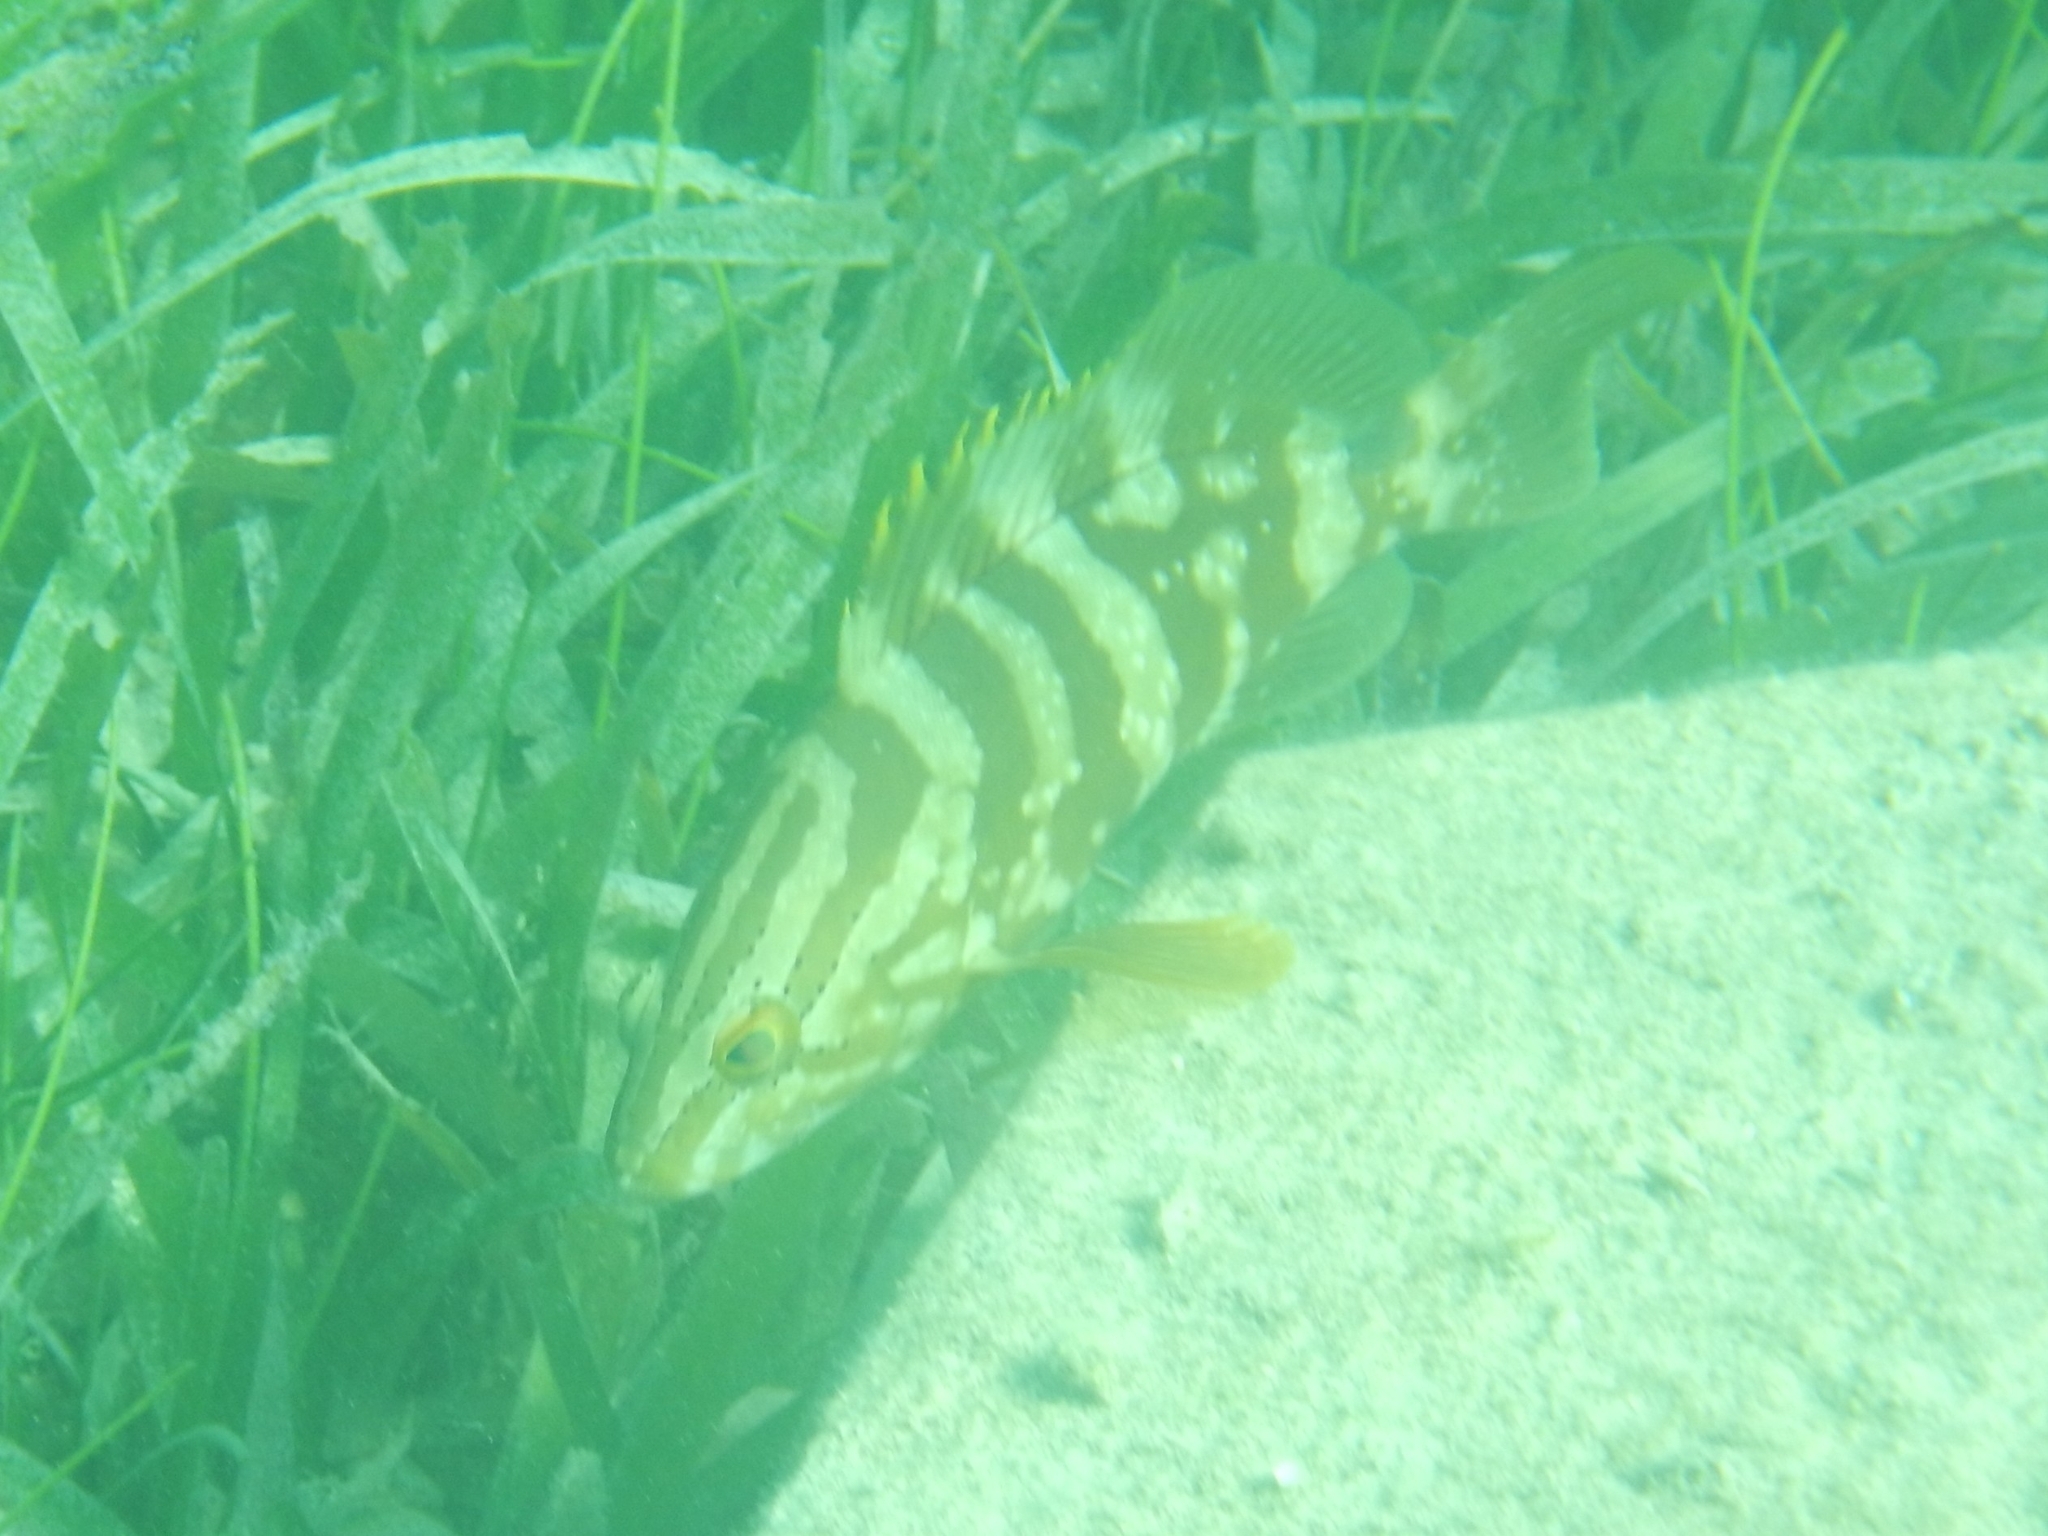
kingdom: Animalia
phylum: Chordata
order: Perciformes
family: Serranidae
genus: Epinephelus
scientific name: Epinephelus striatus
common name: Nassau grouper
